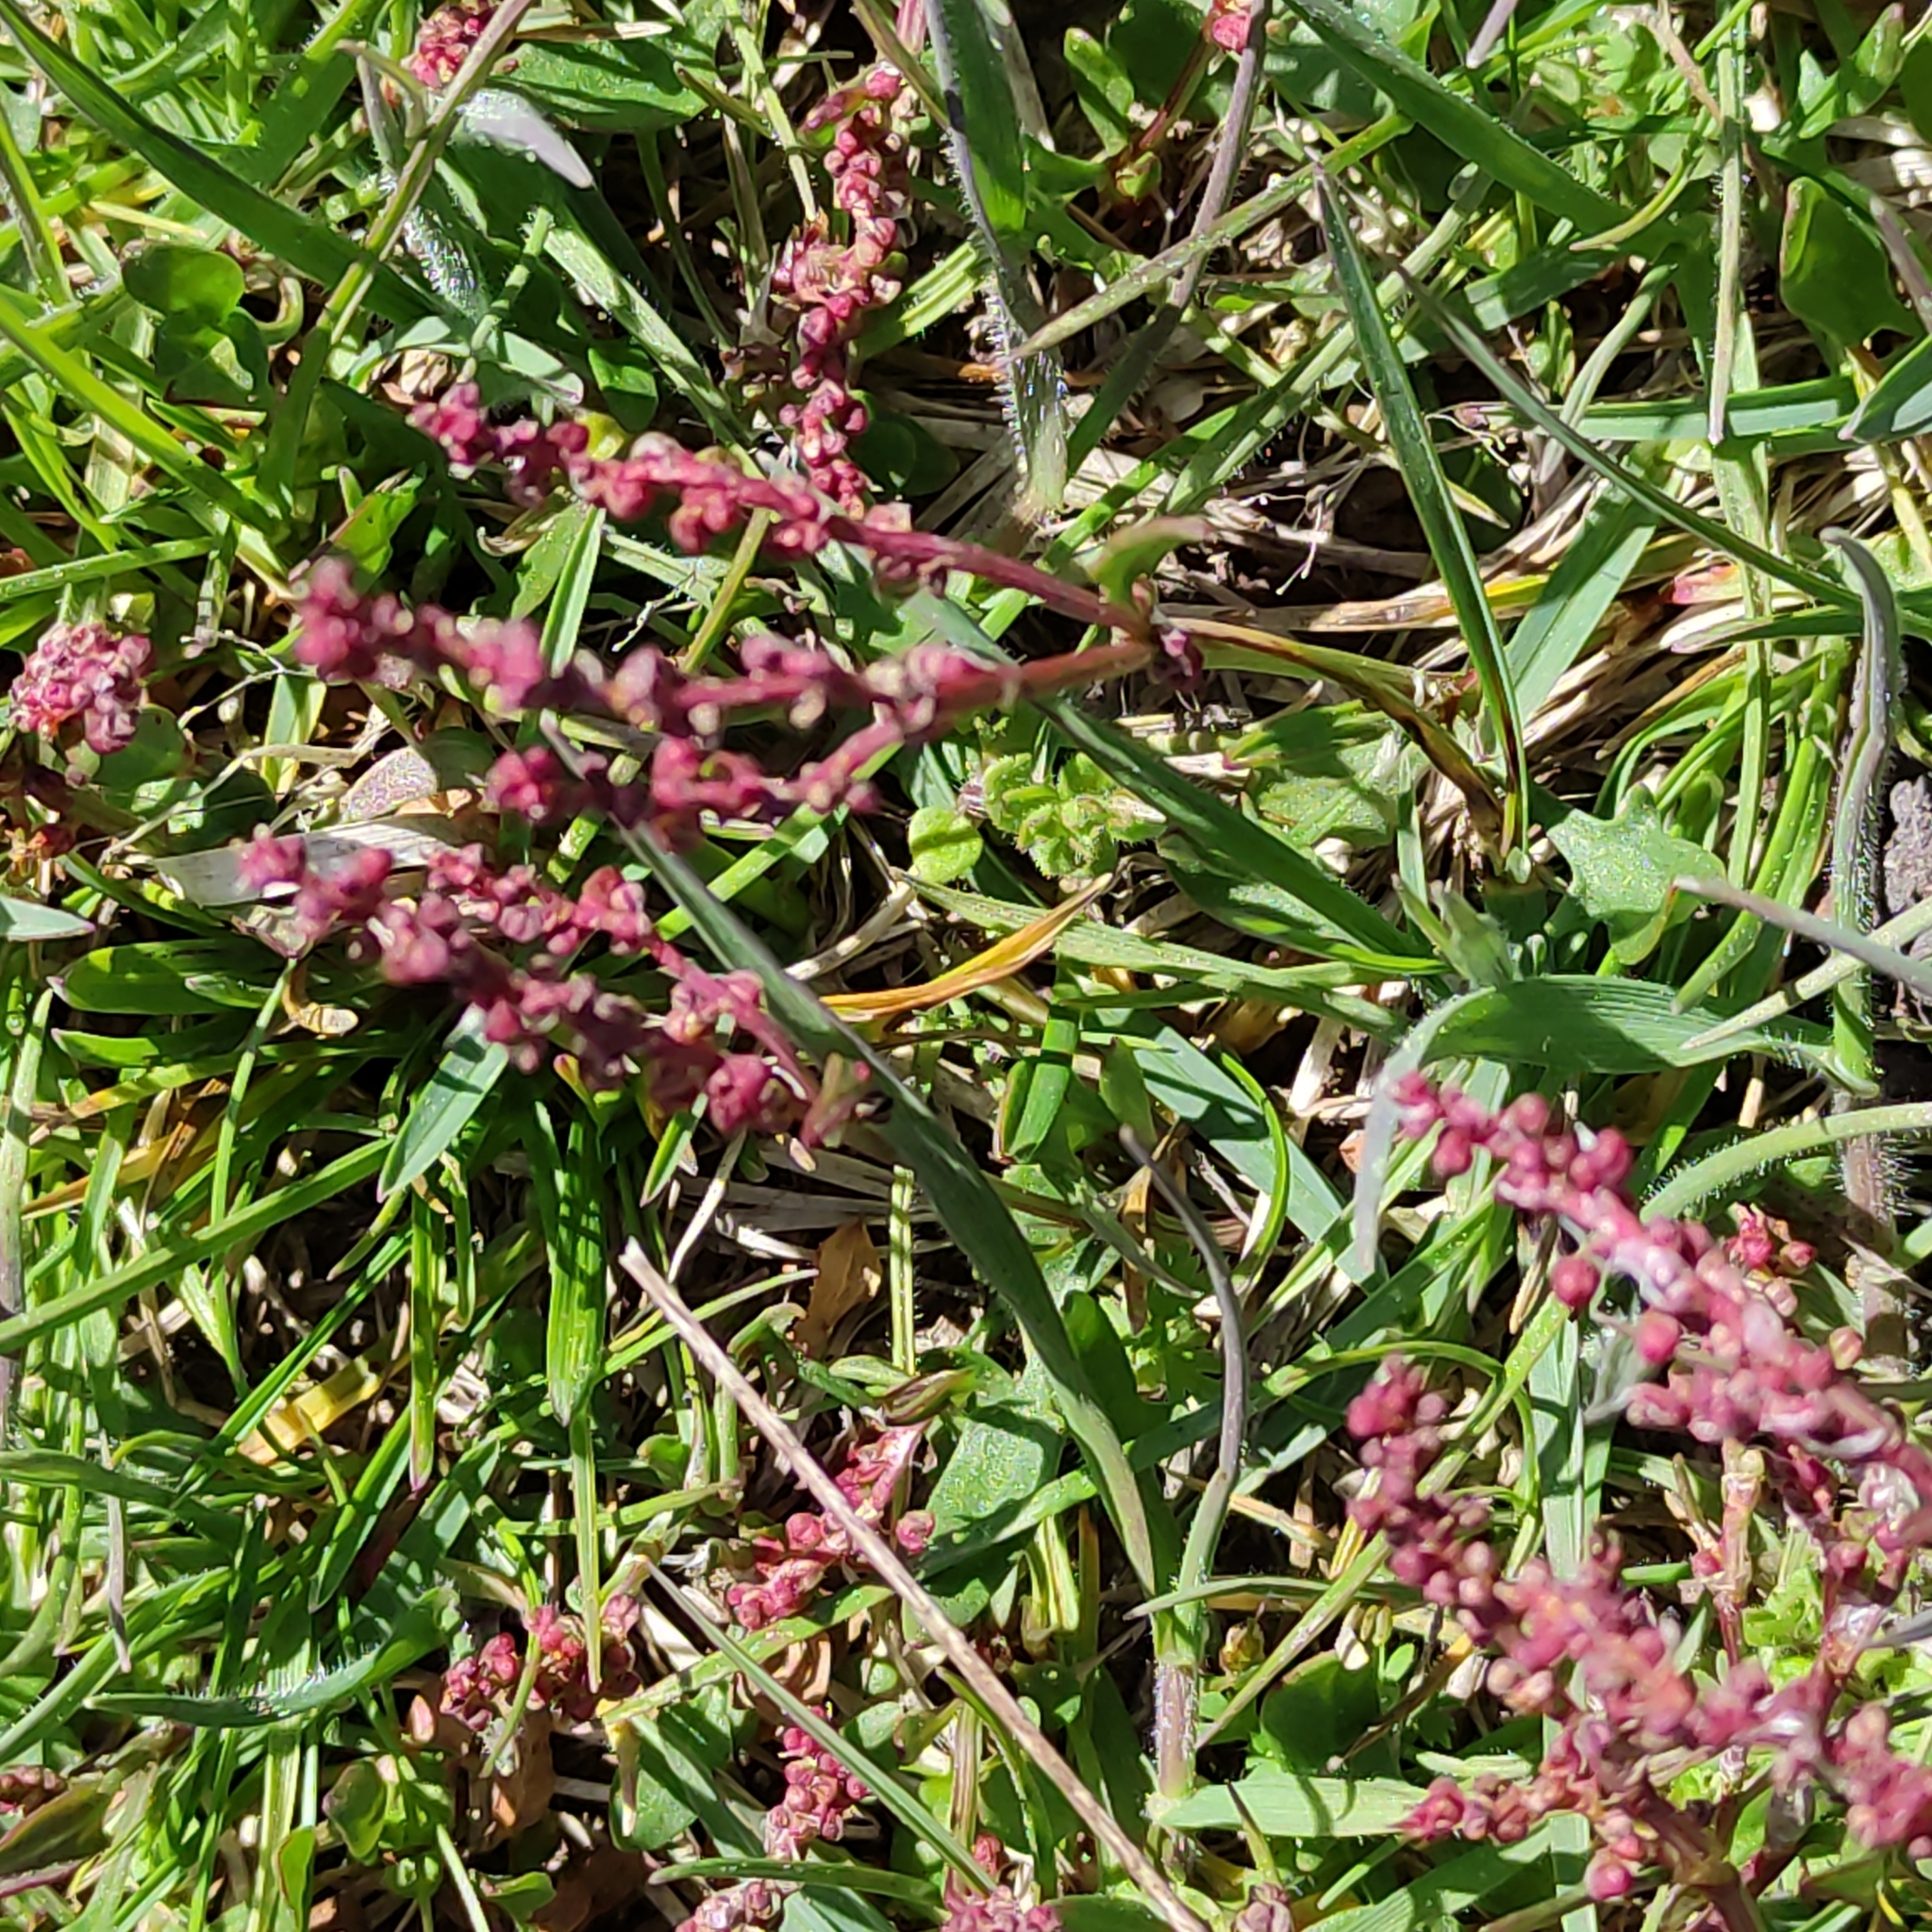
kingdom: Plantae
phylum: Tracheophyta
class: Magnoliopsida
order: Caryophyllales
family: Polygonaceae
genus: Rumex
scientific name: Rumex acetosella
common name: Common sheep sorrel
